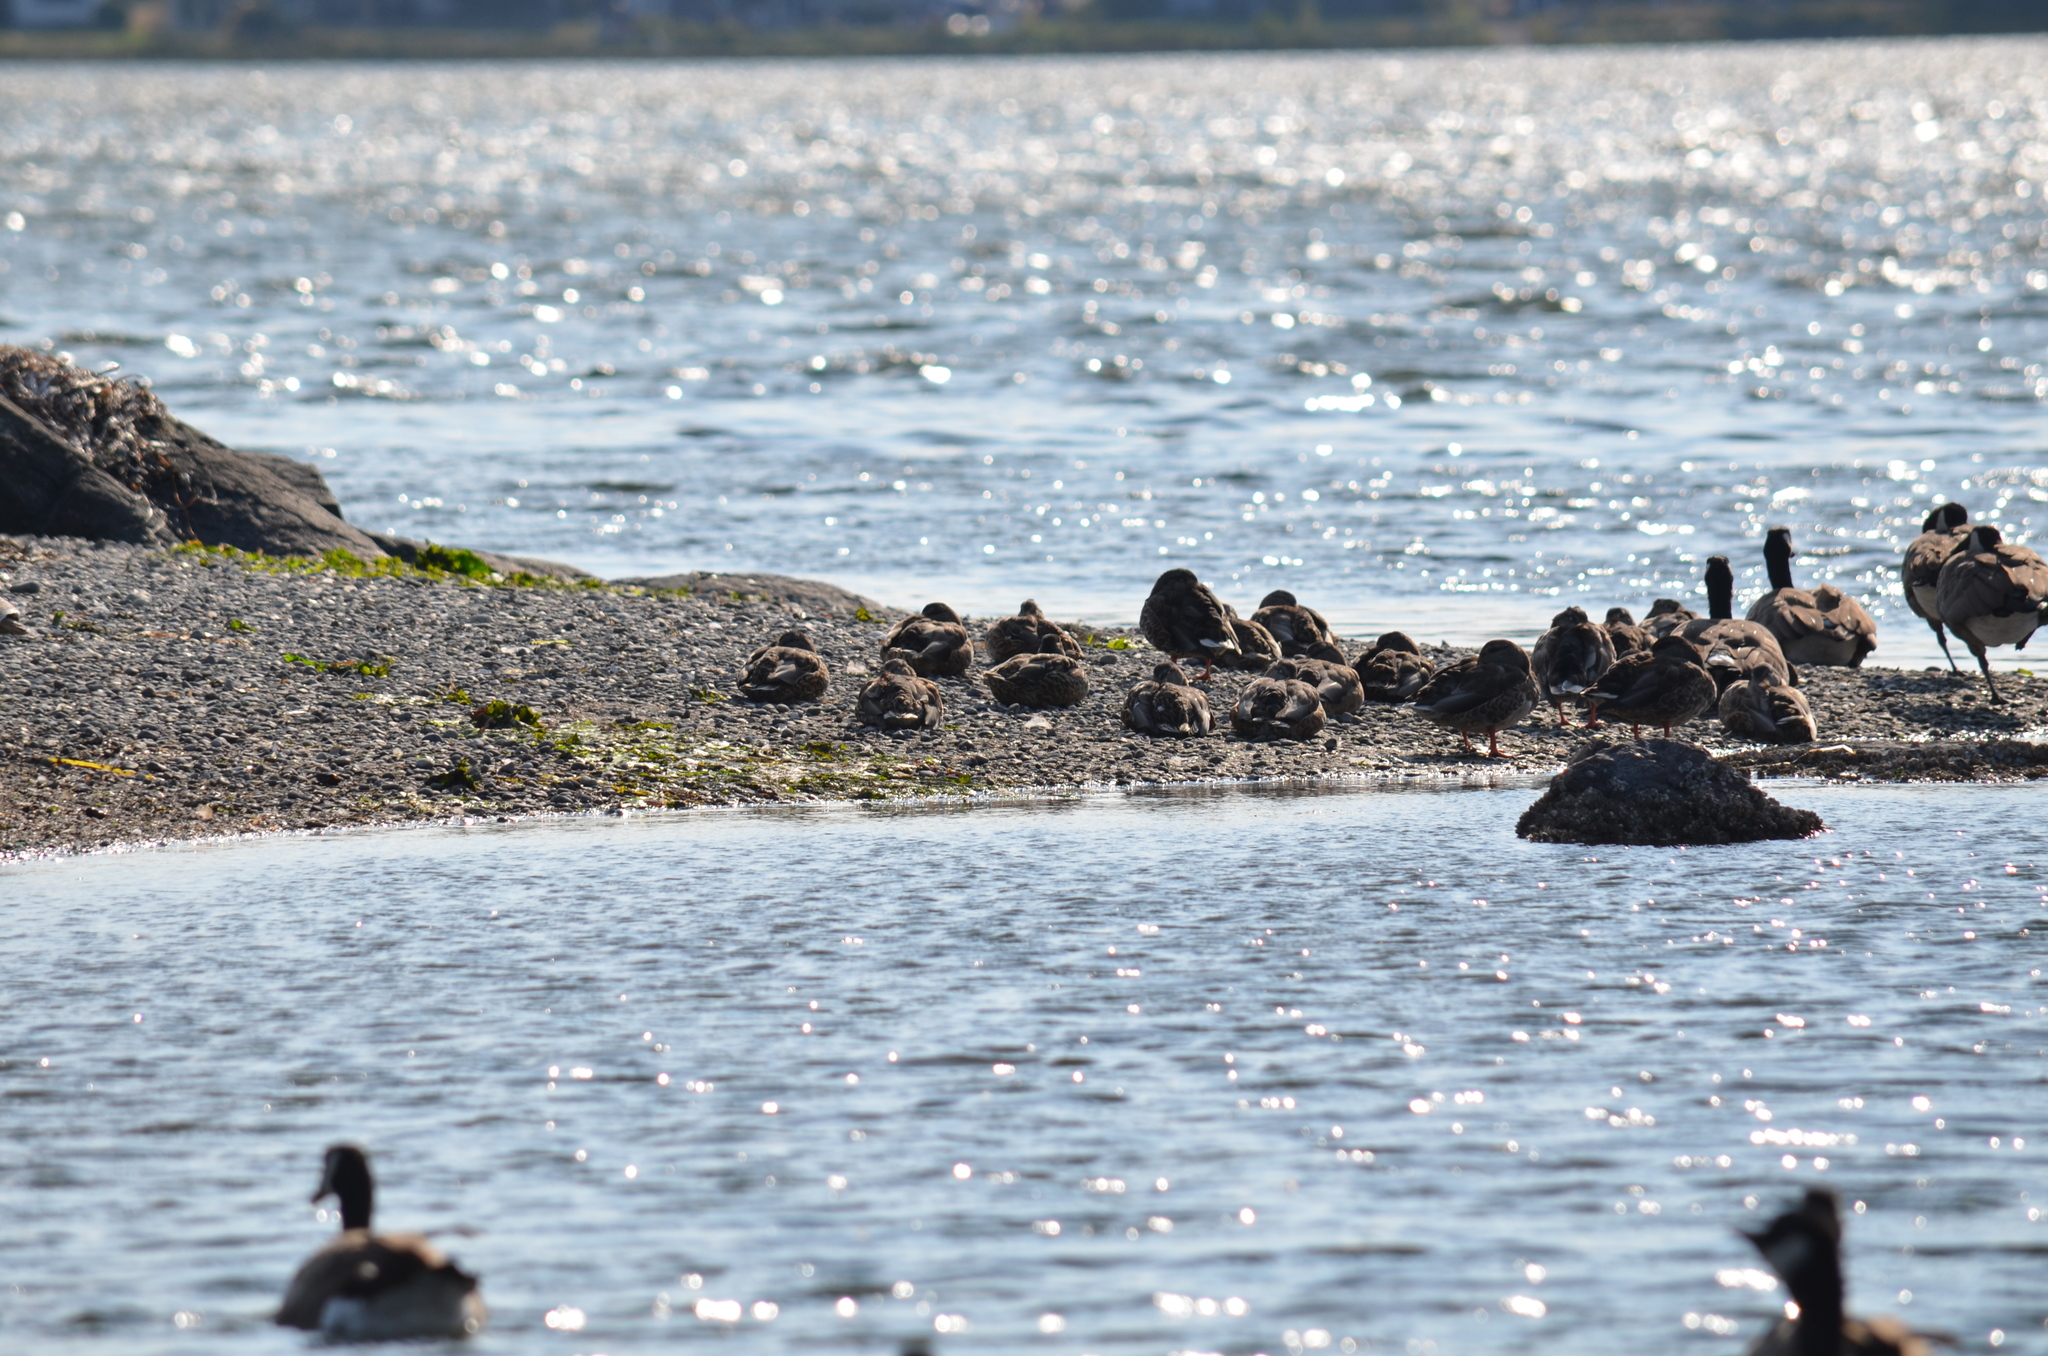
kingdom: Animalia
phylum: Chordata
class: Aves
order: Anseriformes
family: Anatidae
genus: Anas
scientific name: Anas platyrhynchos
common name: Mallard
